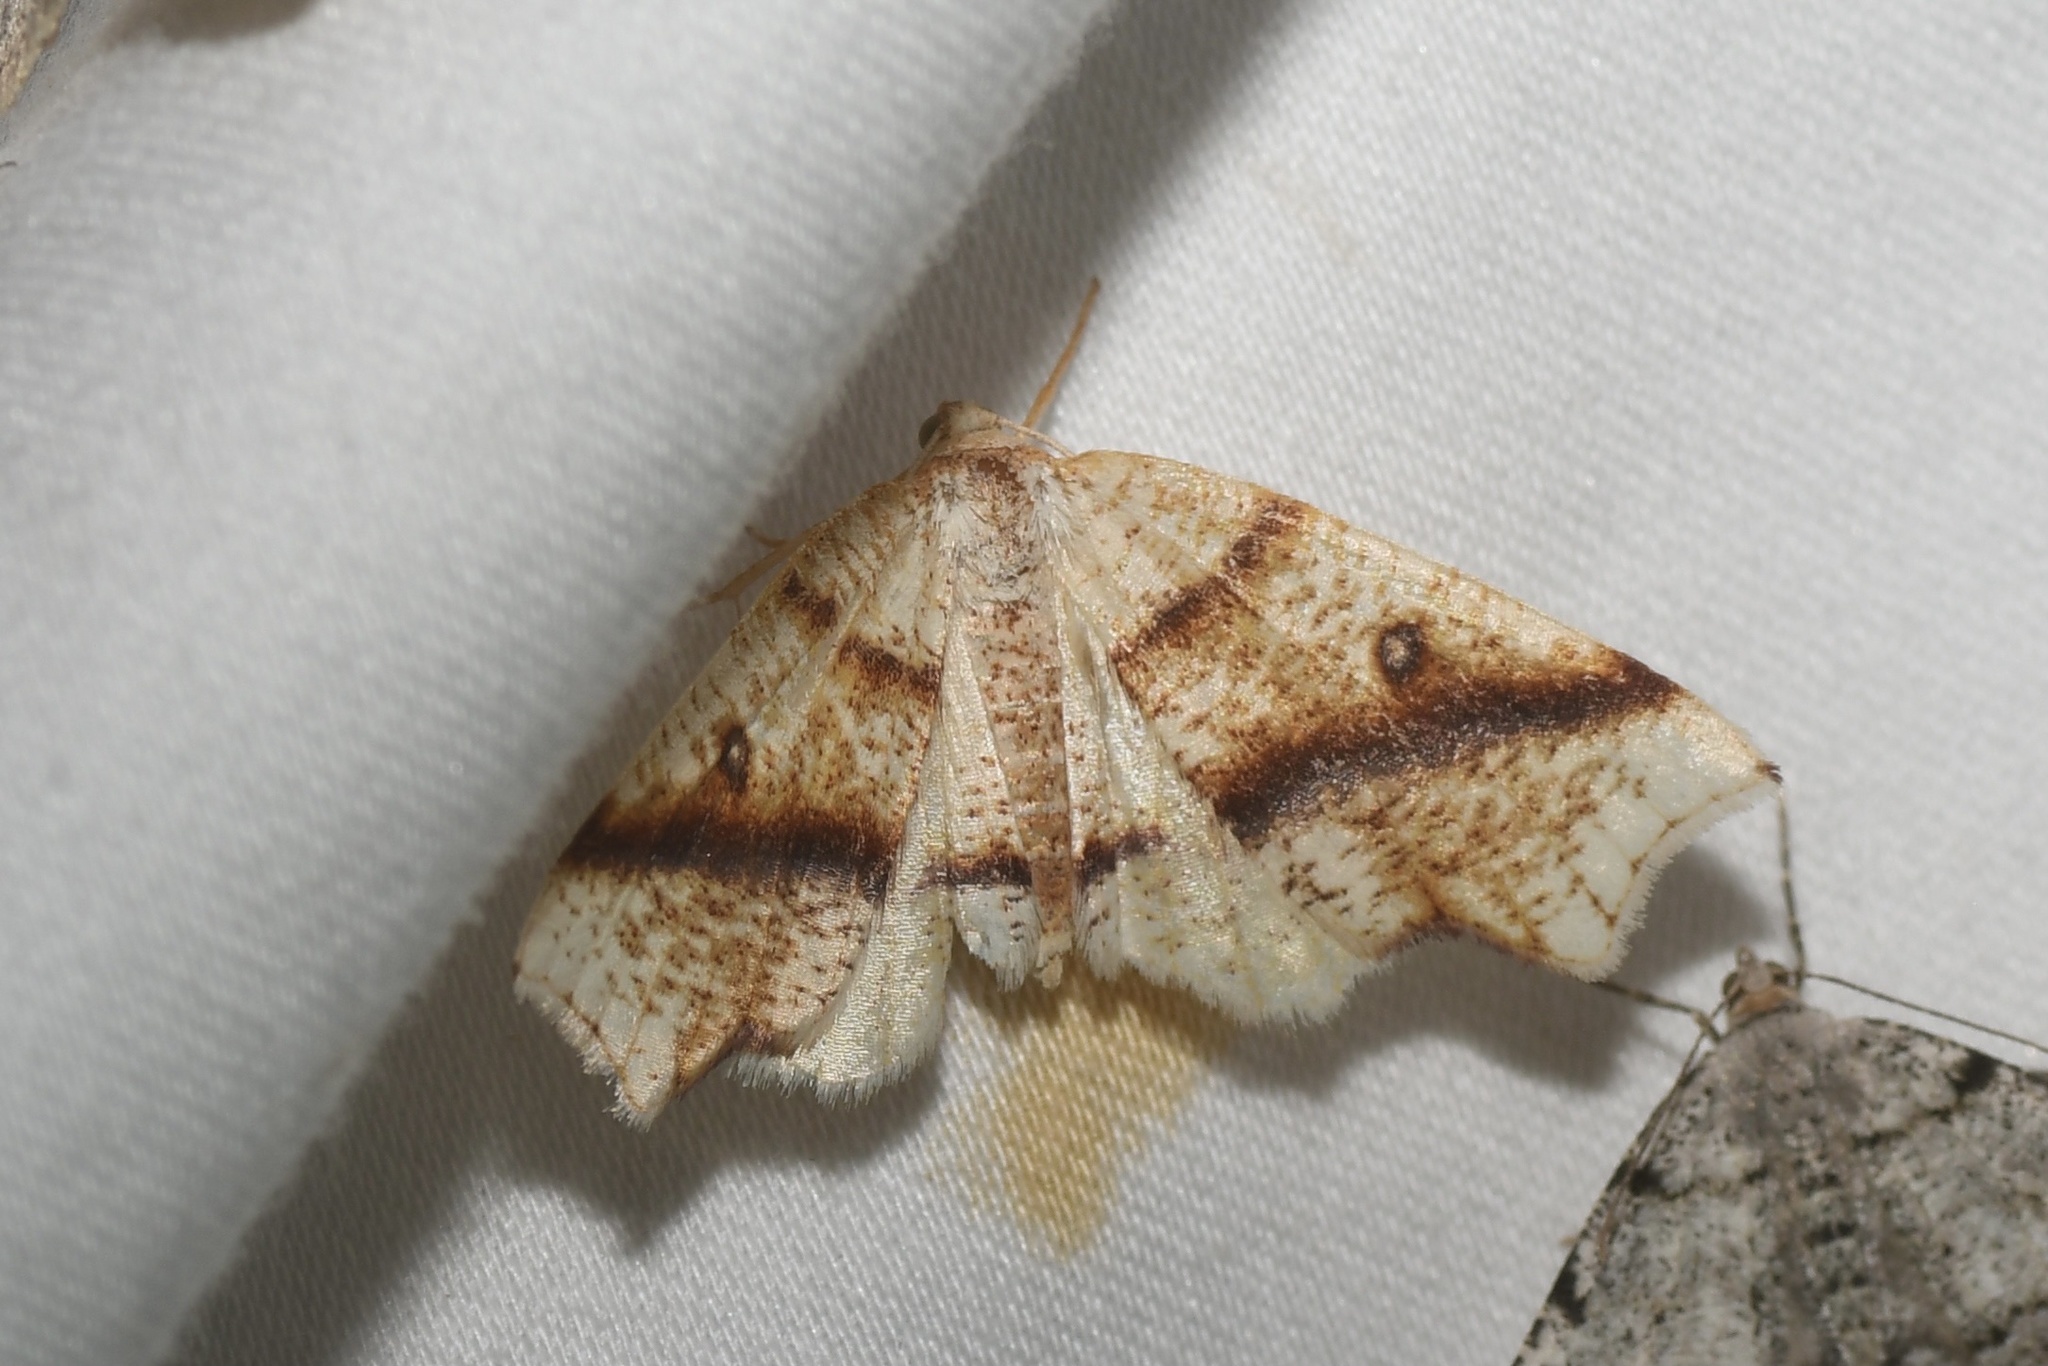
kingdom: Animalia
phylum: Arthropoda
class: Insecta
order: Lepidoptera
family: Geometridae
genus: Plagodis
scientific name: Plagodis alcoolaria
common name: Hollow-spotted plagodis
